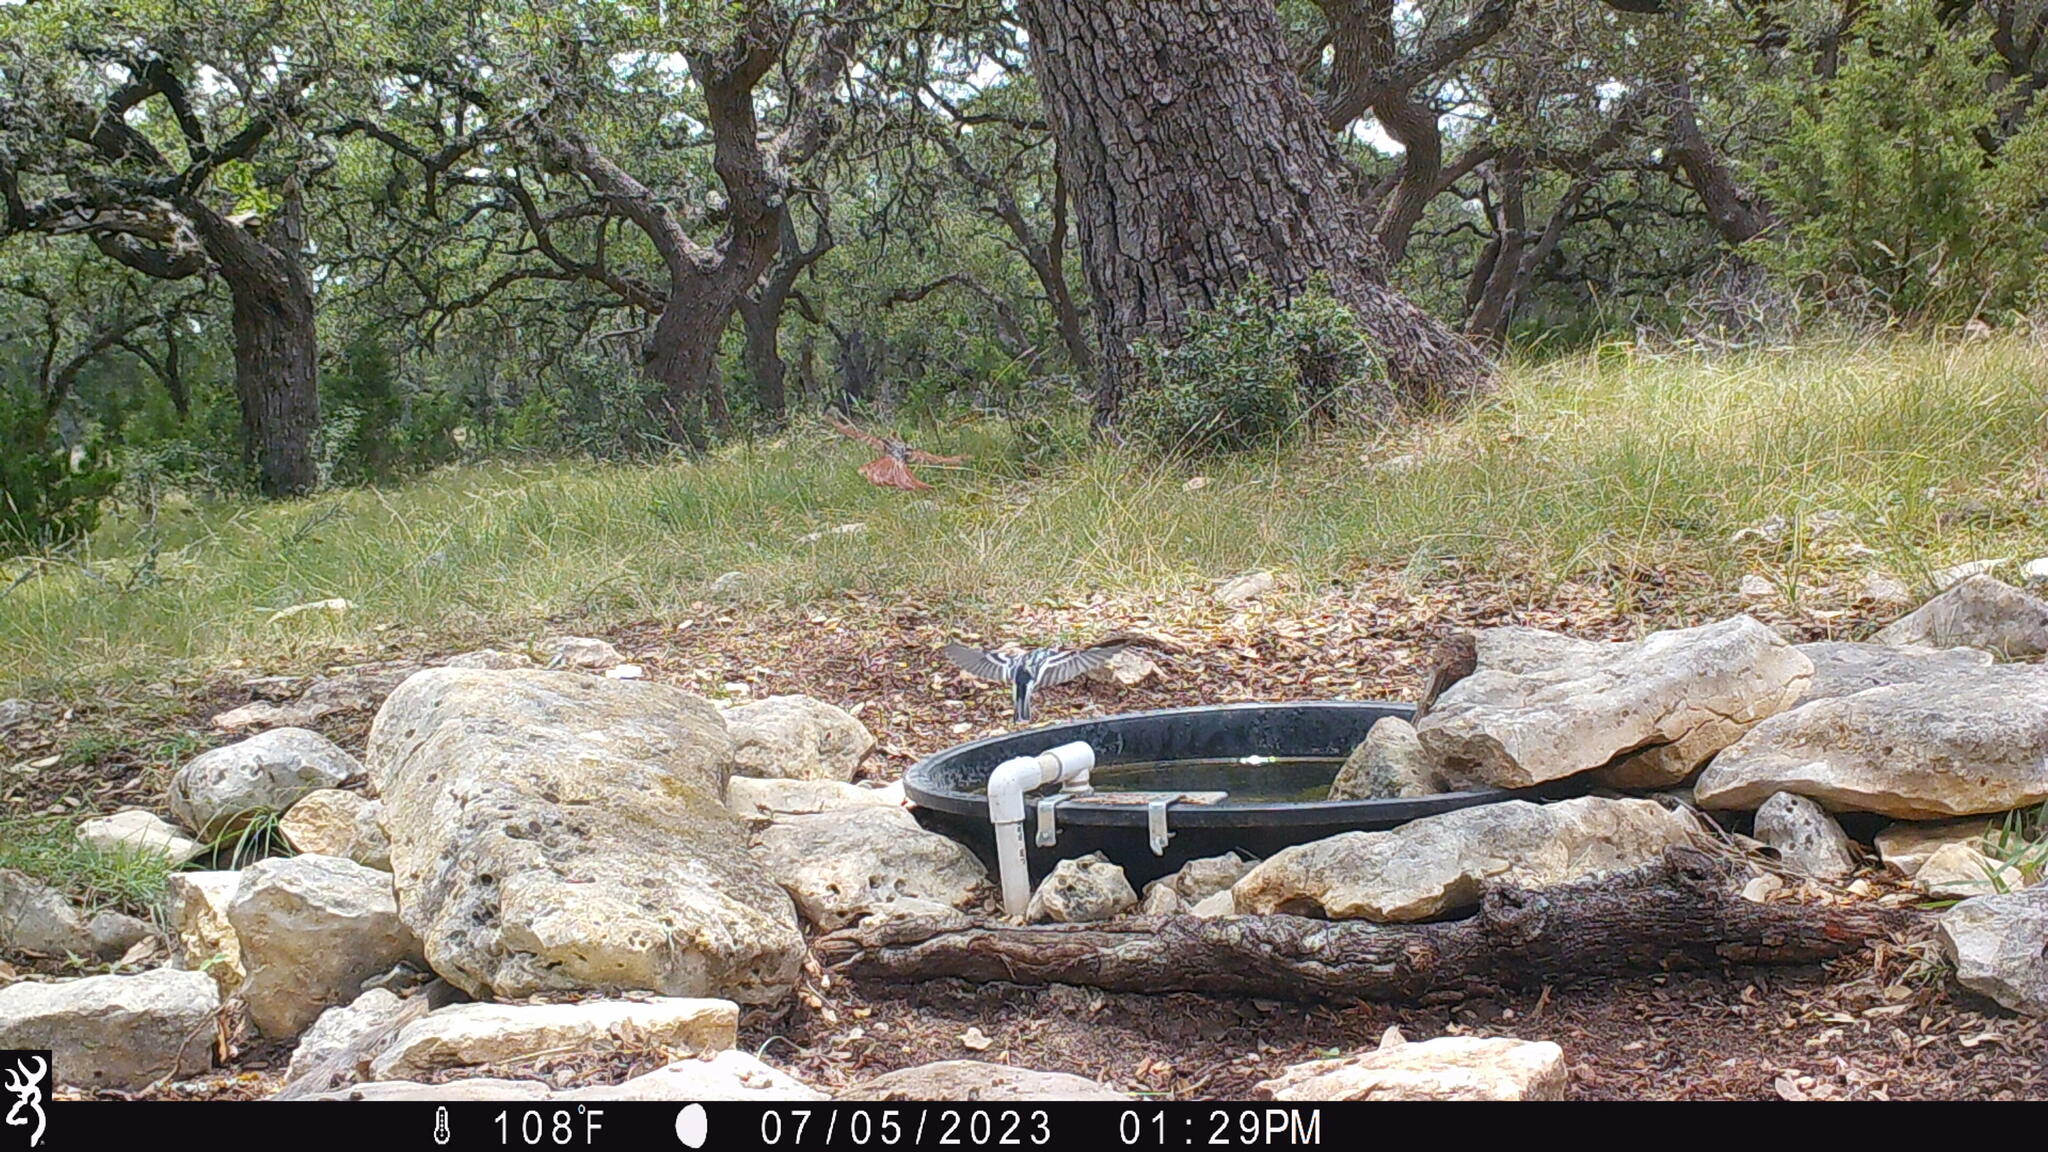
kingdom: Animalia
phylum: Chordata
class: Aves
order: Passeriformes
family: Parulidae
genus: Mniotilta
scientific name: Mniotilta varia
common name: Black-and-white warbler
